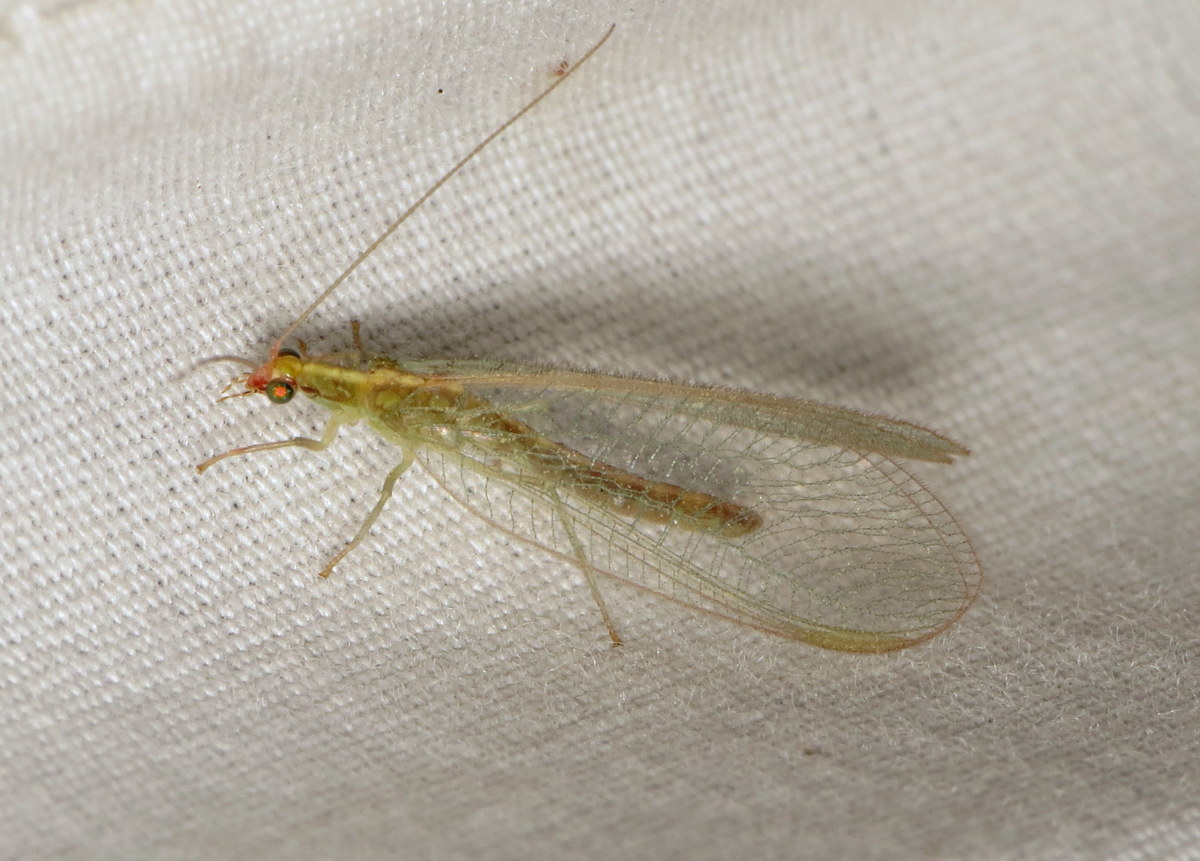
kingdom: Animalia
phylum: Arthropoda
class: Insecta
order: Neuroptera
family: Chrysopidae
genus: Chrysoperla
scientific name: Chrysoperla
